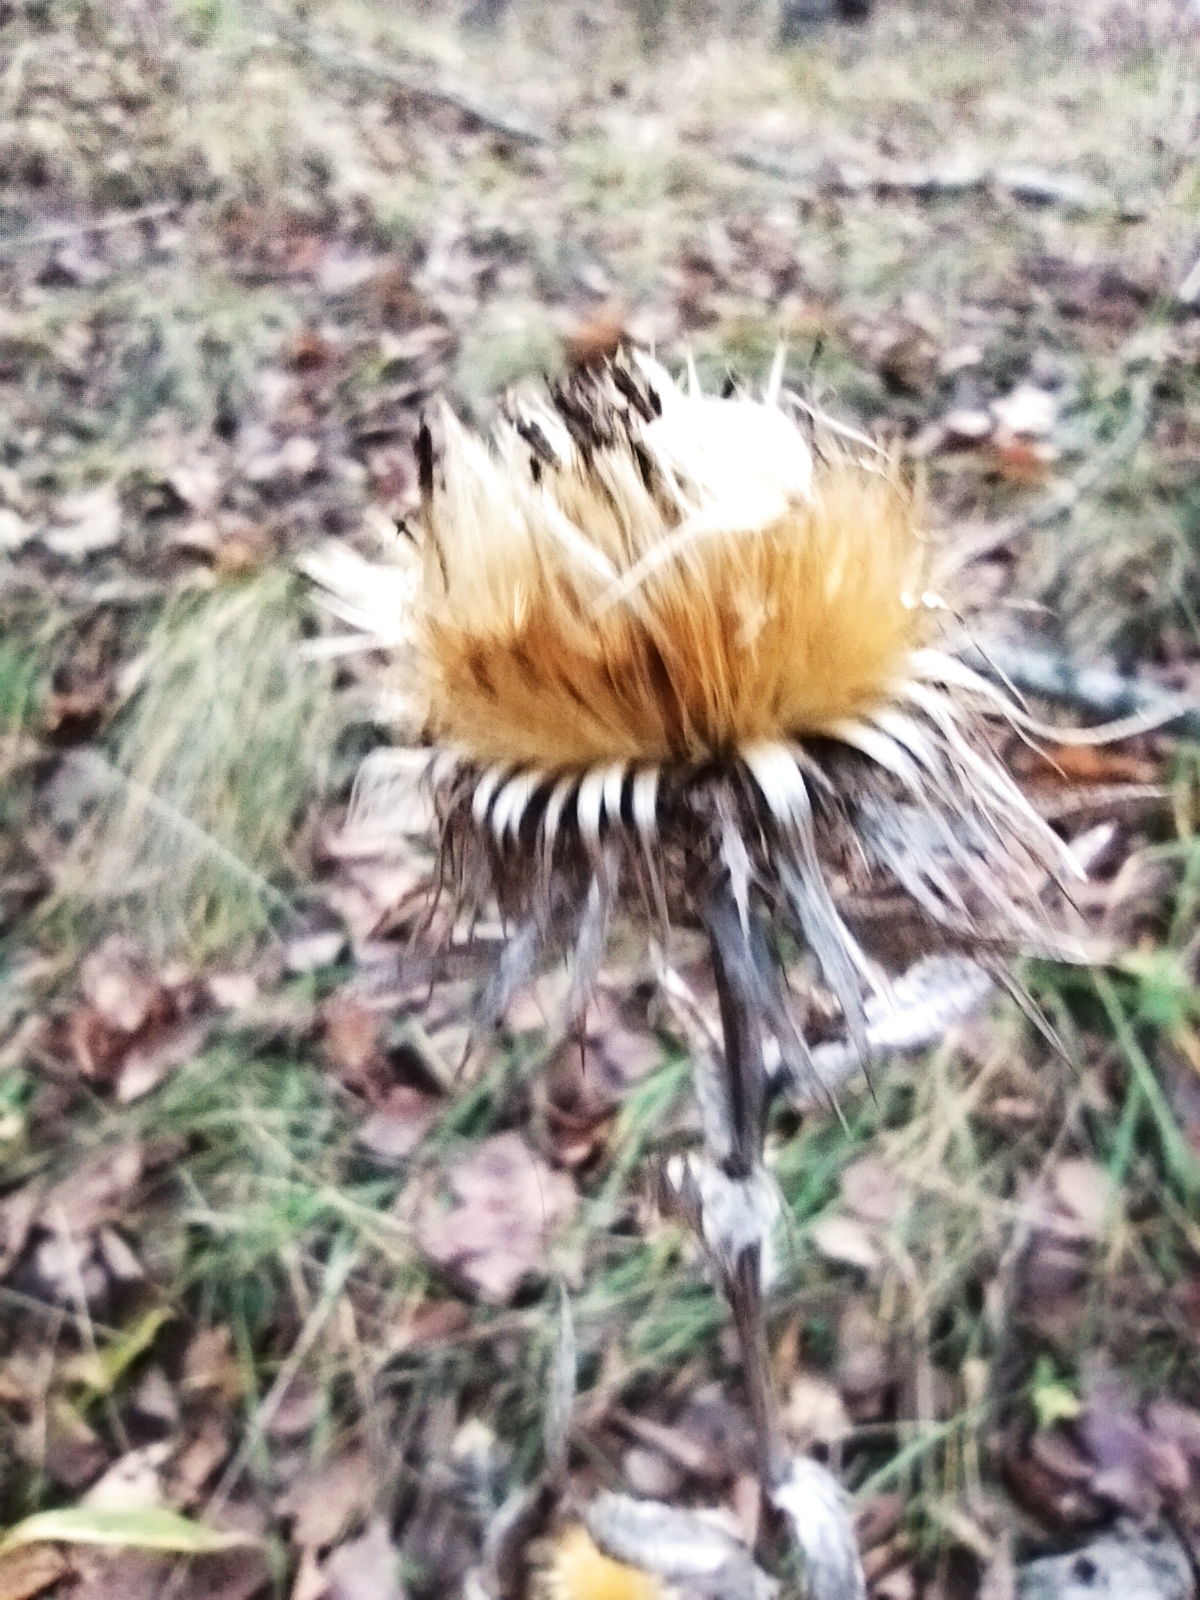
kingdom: Plantae
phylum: Tracheophyta
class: Magnoliopsida
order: Asterales
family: Asteraceae
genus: Carlina
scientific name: Carlina biebersteinii
